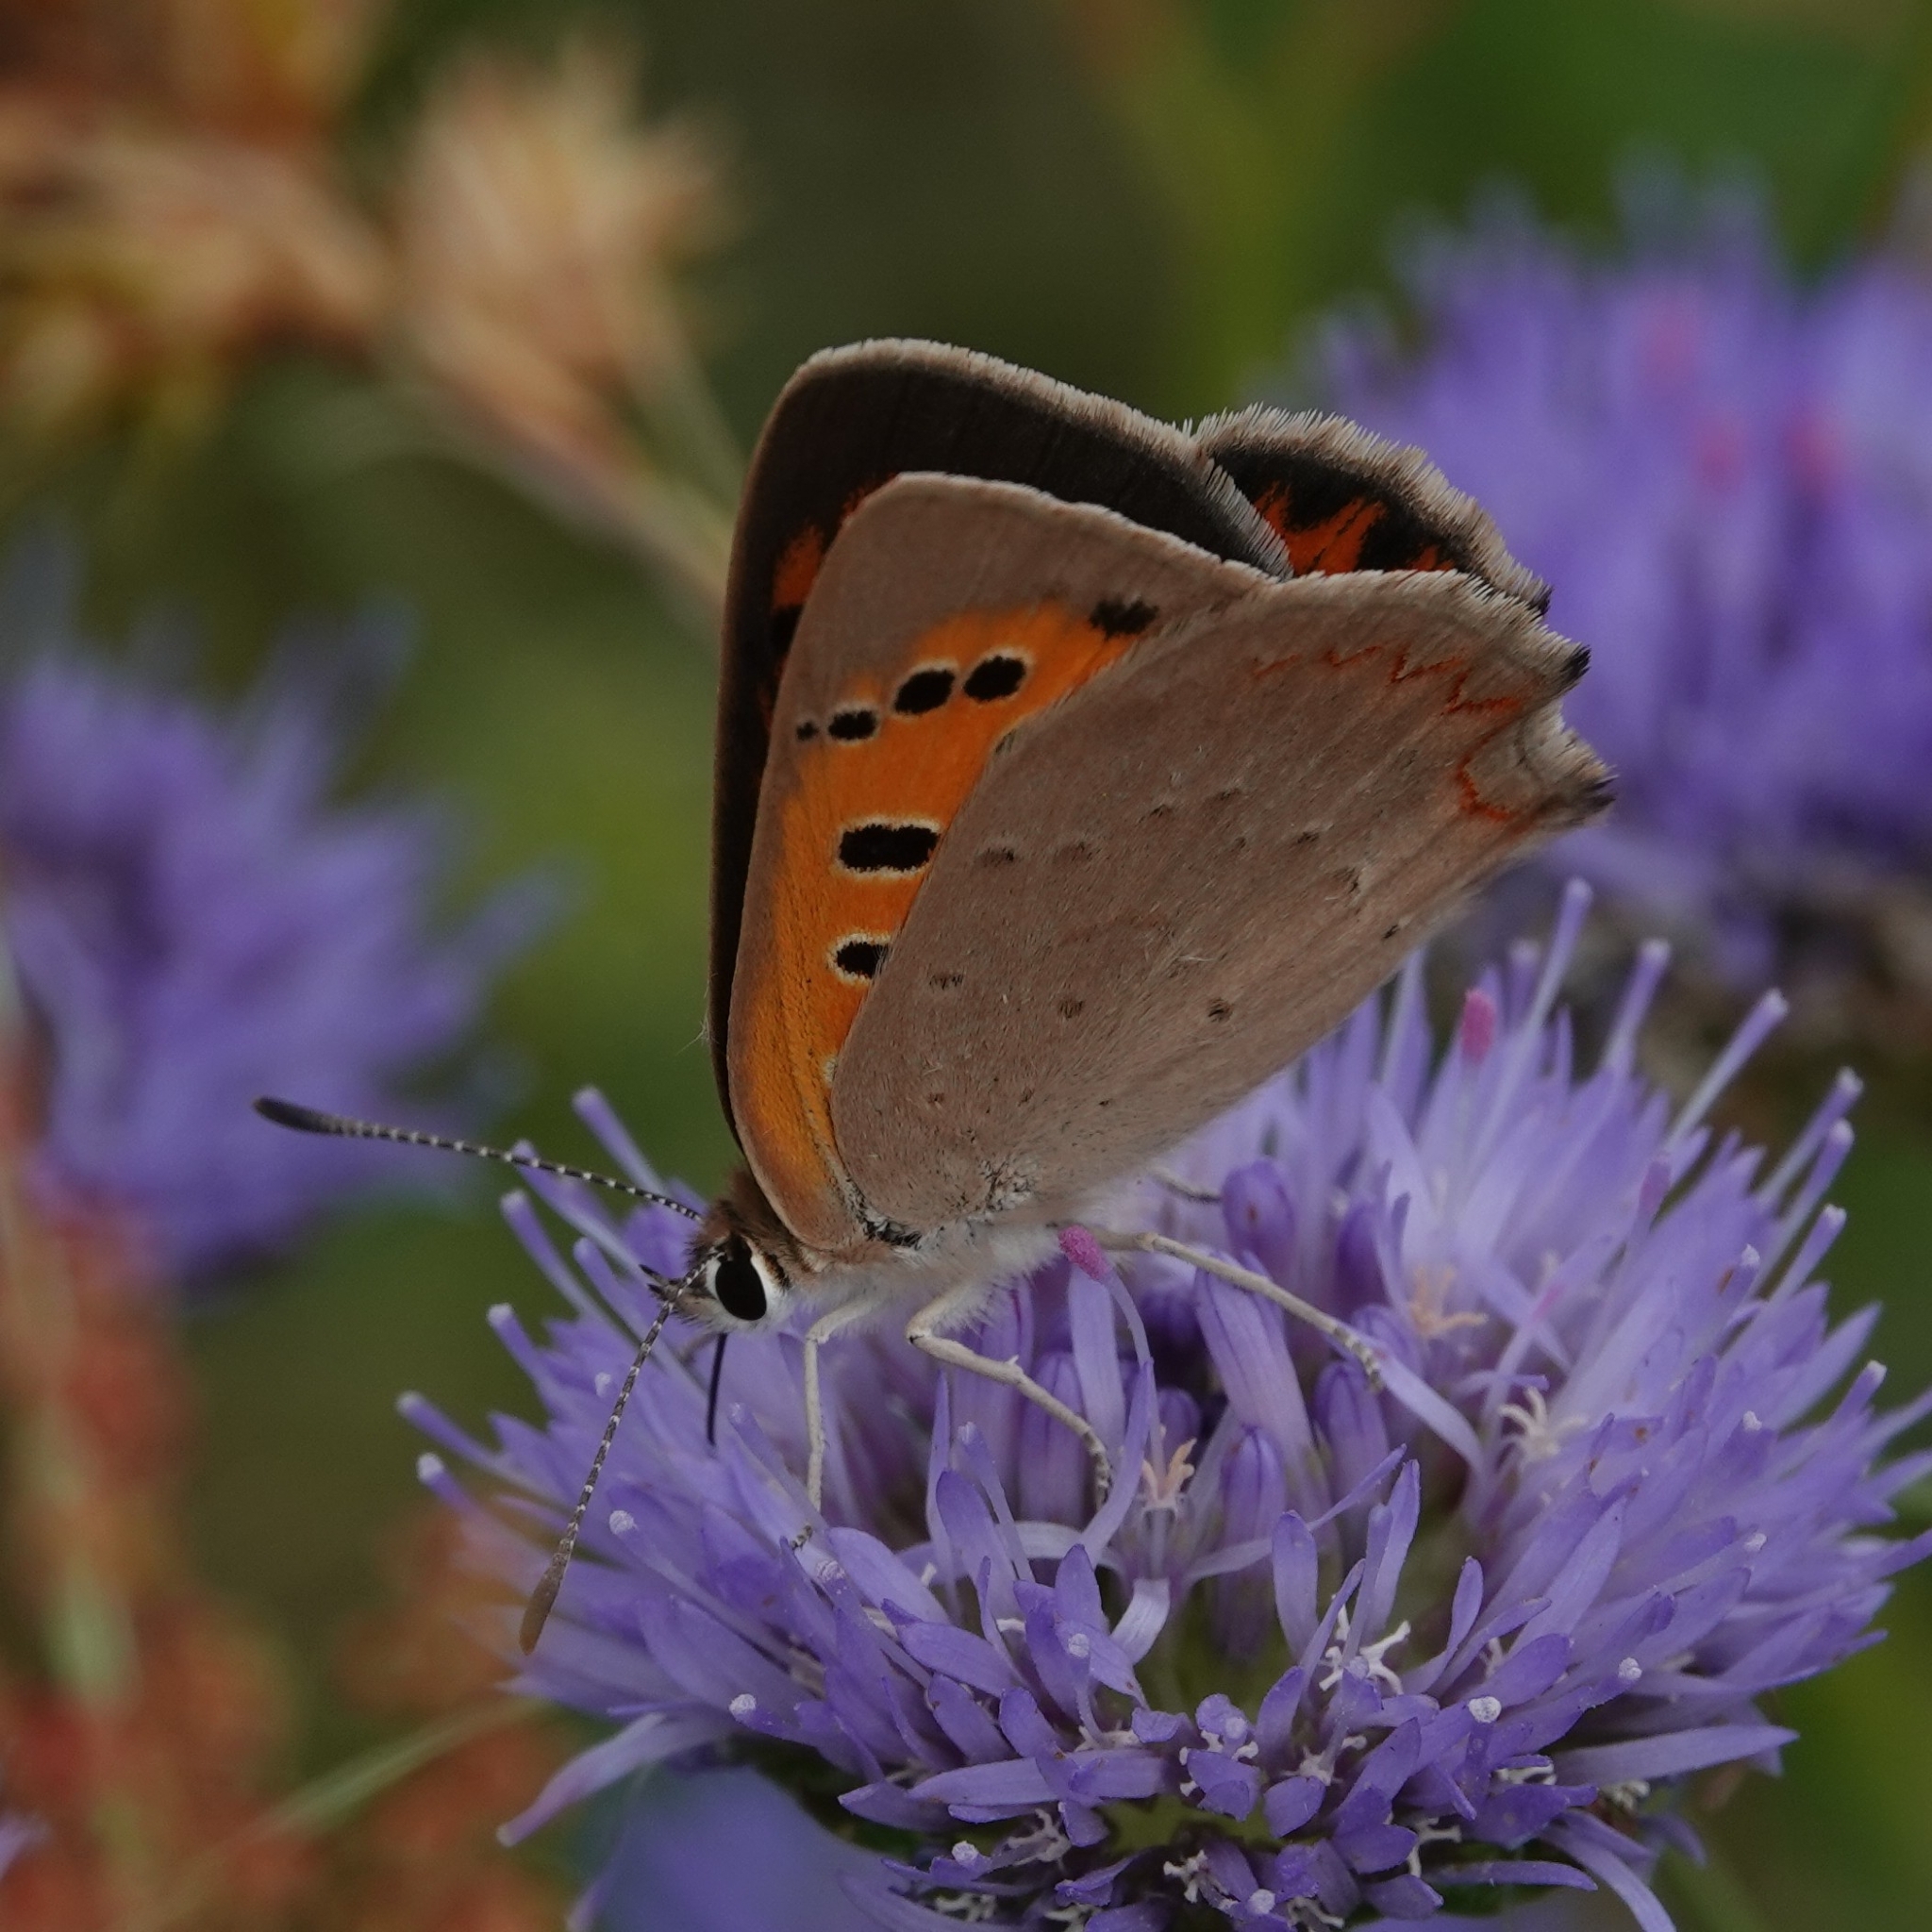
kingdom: Animalia
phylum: Arthropoda
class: Insecta
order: Lepidoptera
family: Lycaenidae
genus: Lycaena
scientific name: Lycaena phlaeas
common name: Small copper
